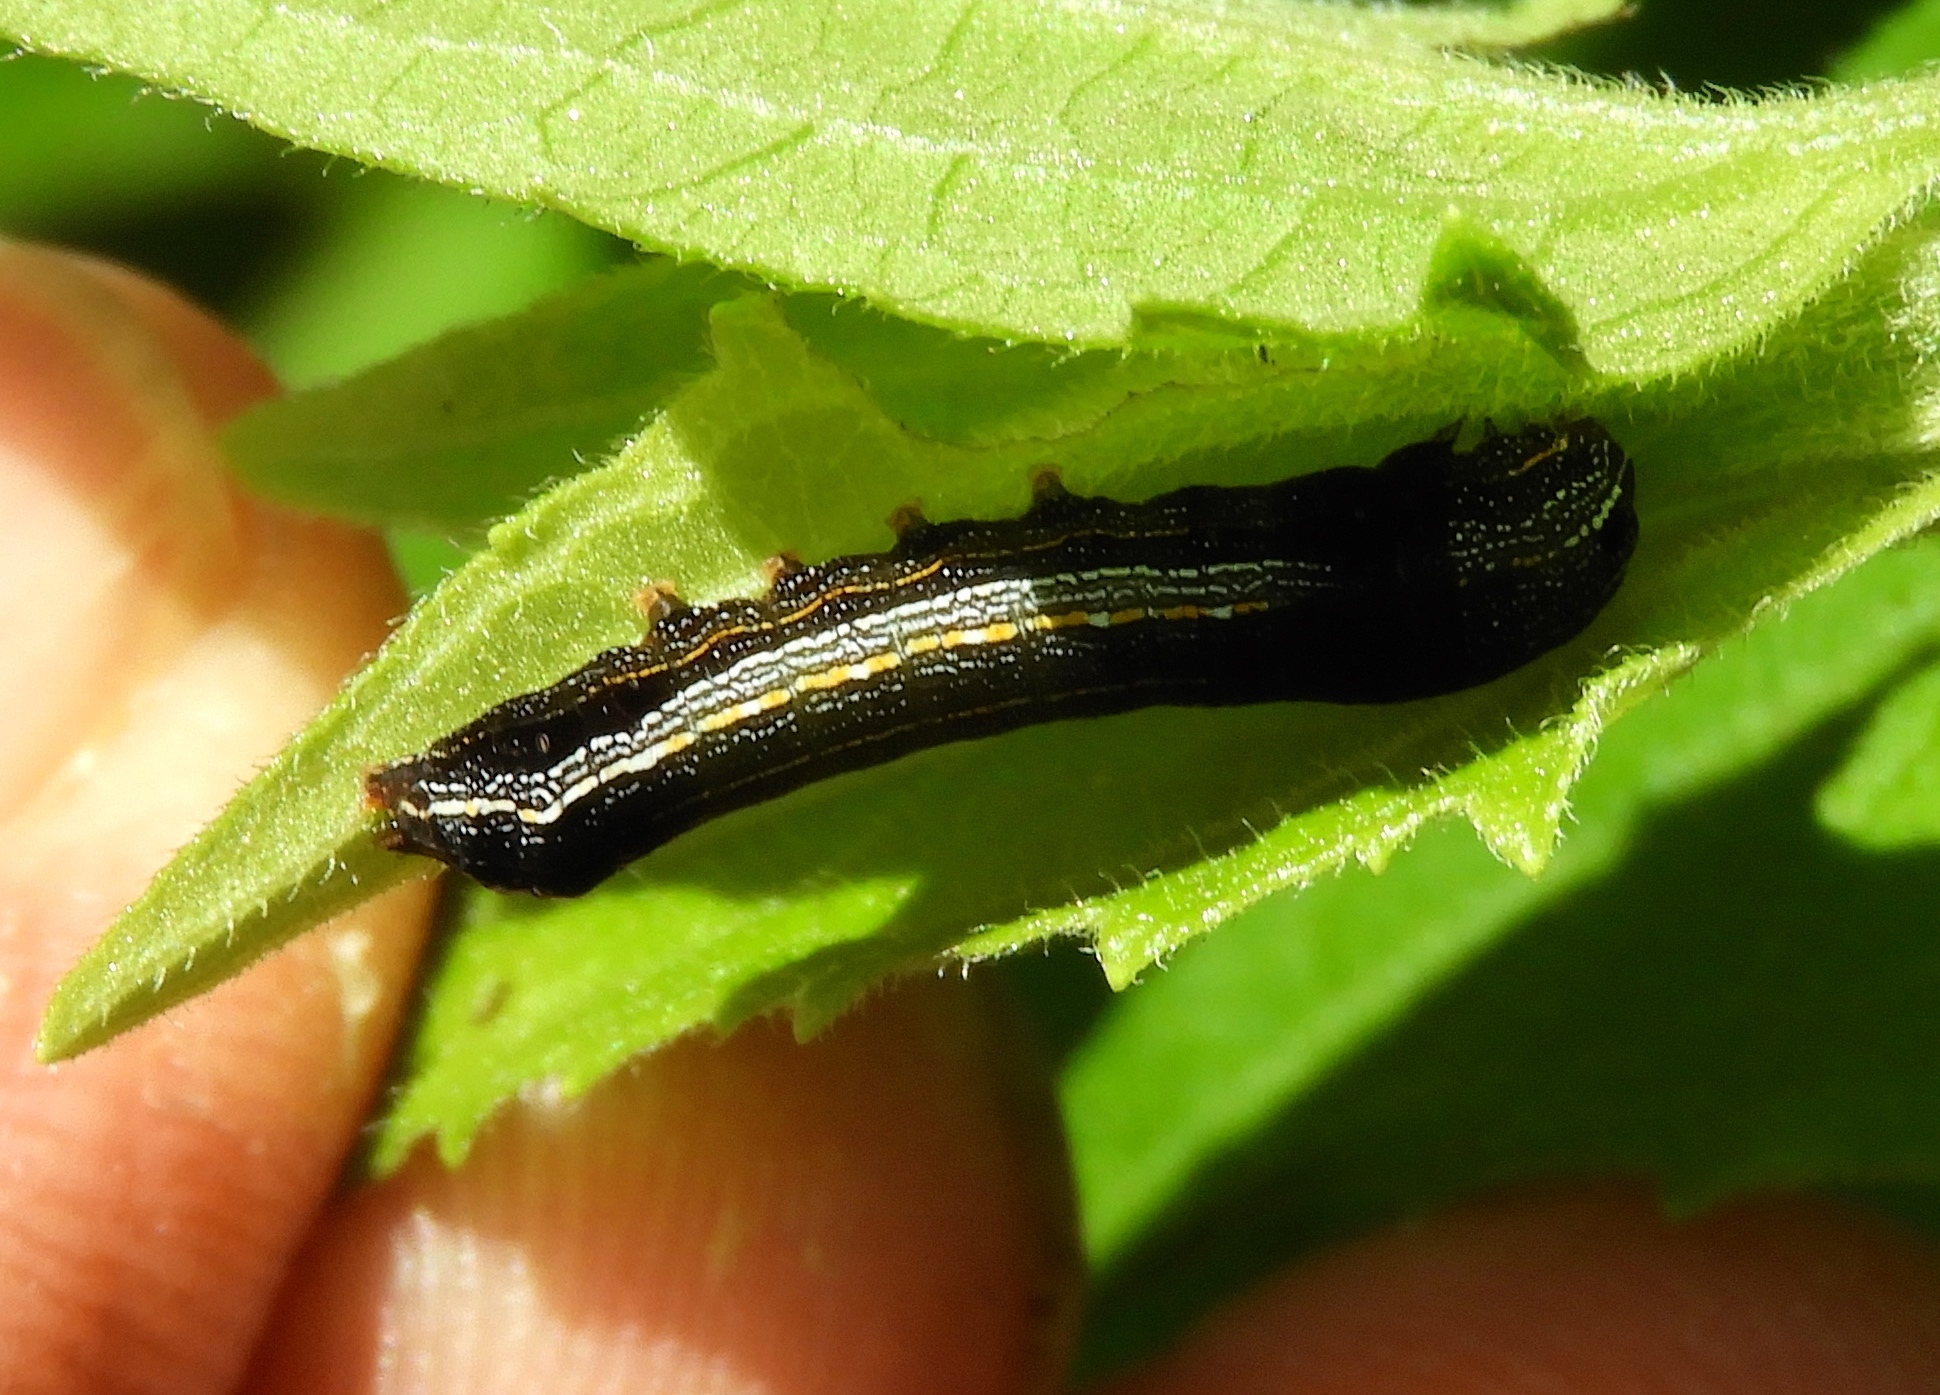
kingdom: Animalia
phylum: Arthropoda
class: Insecta
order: Lepidoptera
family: Noctuidae
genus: Spodoptera
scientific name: Spodoptera cosmioides
